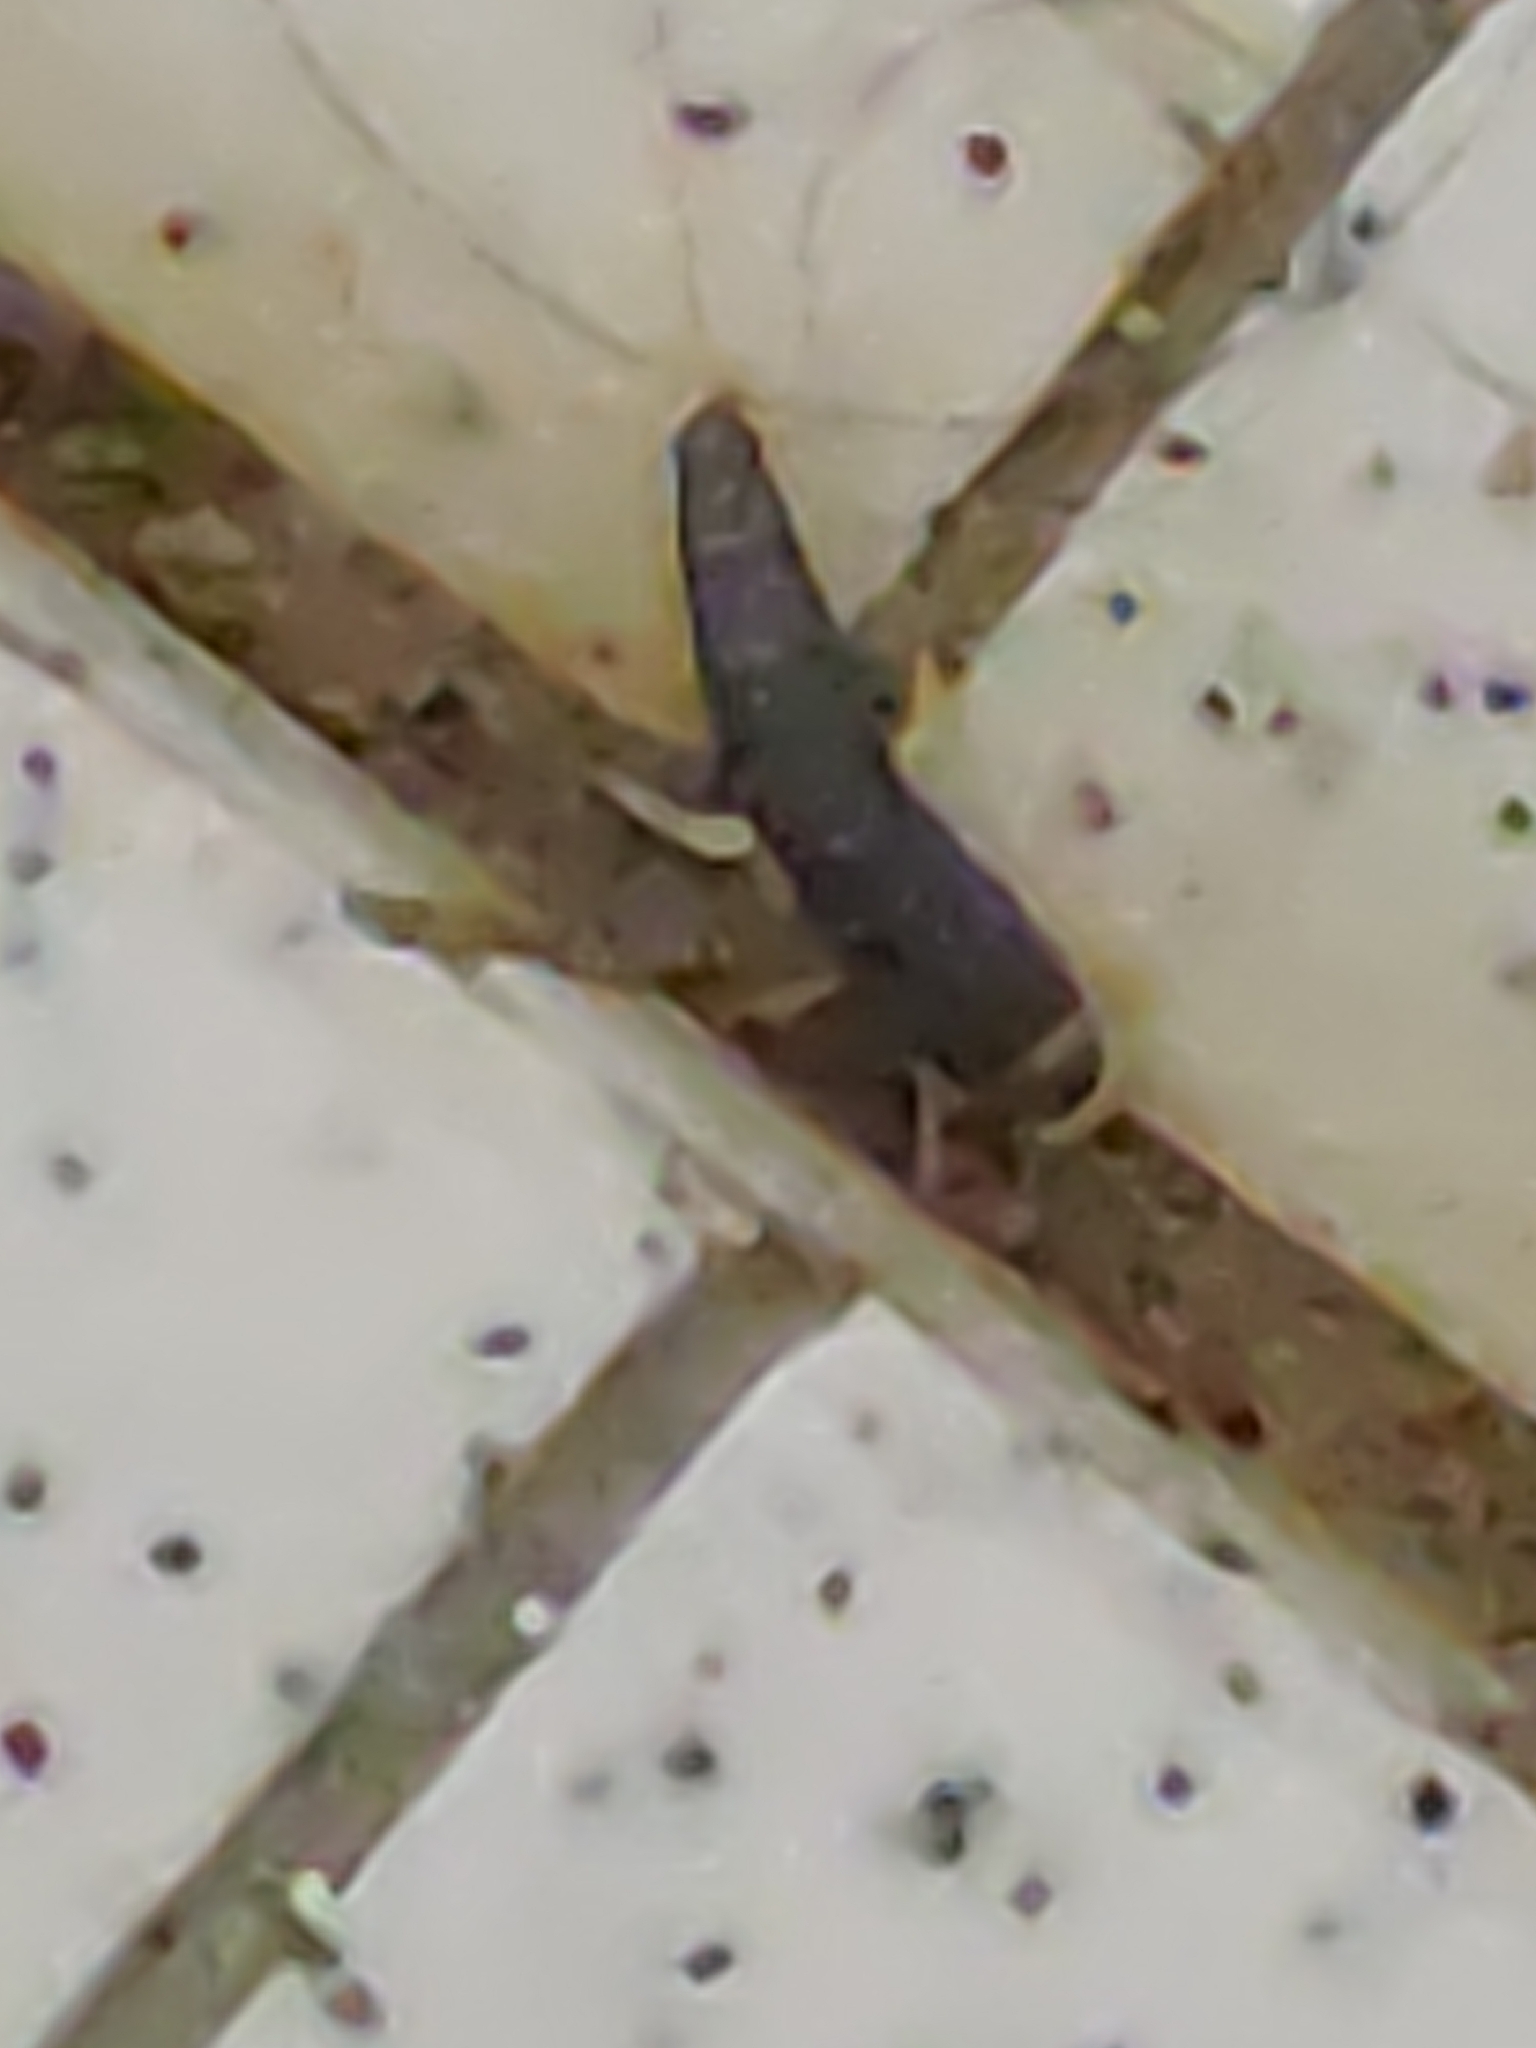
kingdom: Animalia
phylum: Arthropoda
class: Insecta
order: Zygentoma
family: Lepismatidae
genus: Ctenolepisma
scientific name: Ctenolepisma longicaudatum
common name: Silverfish
